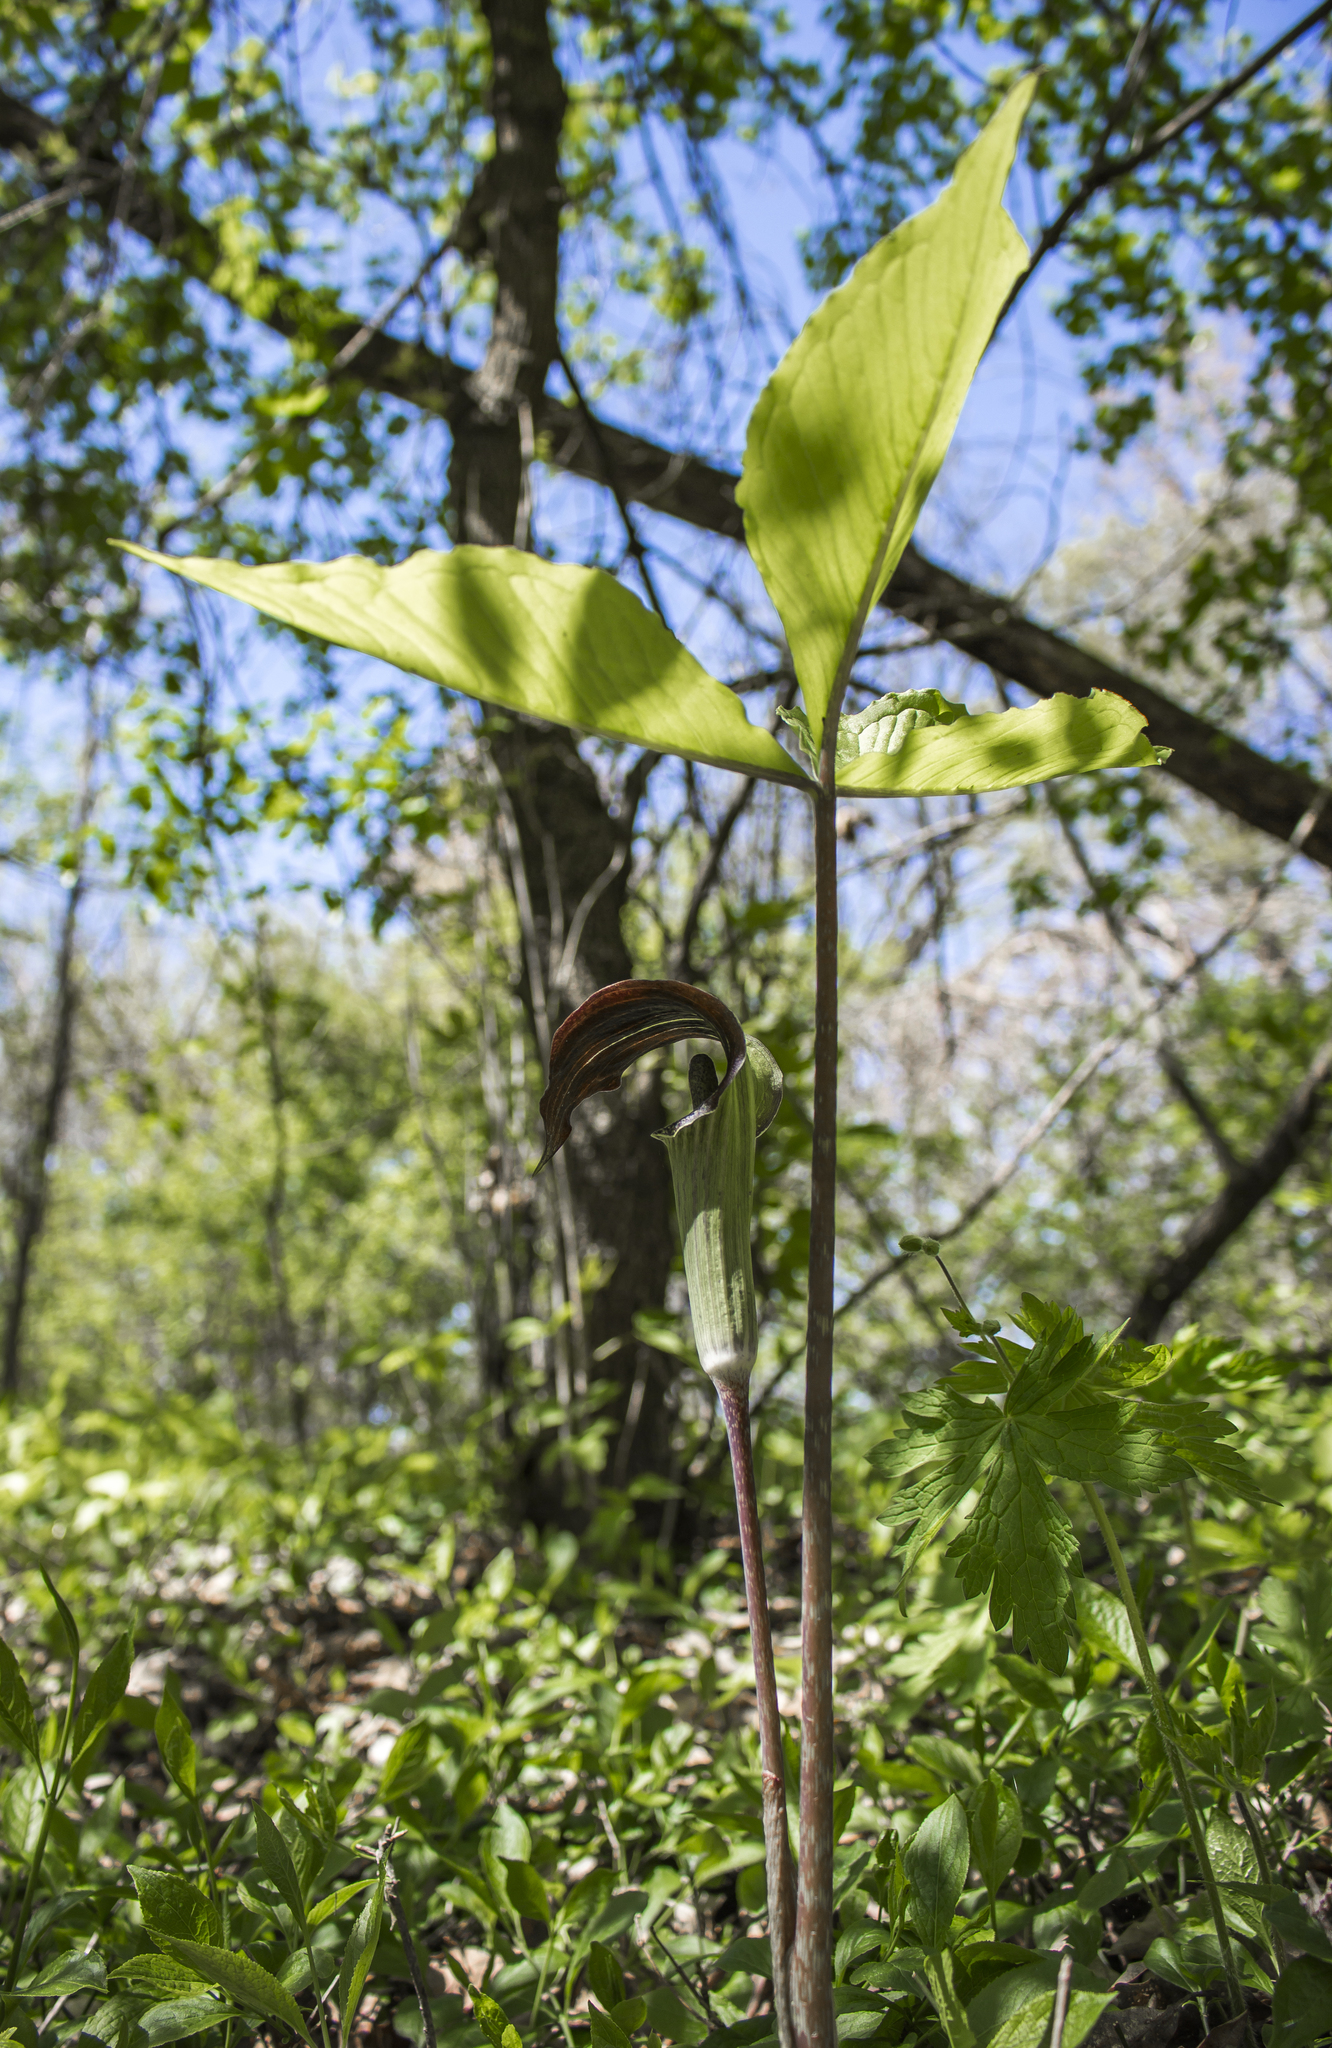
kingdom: Plantae
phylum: Tracheophyta
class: Liliopsida
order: Alismatales
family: Araceae
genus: Arisaema
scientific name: Arisaema triphyllum
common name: Jack-in-the-pulpit
